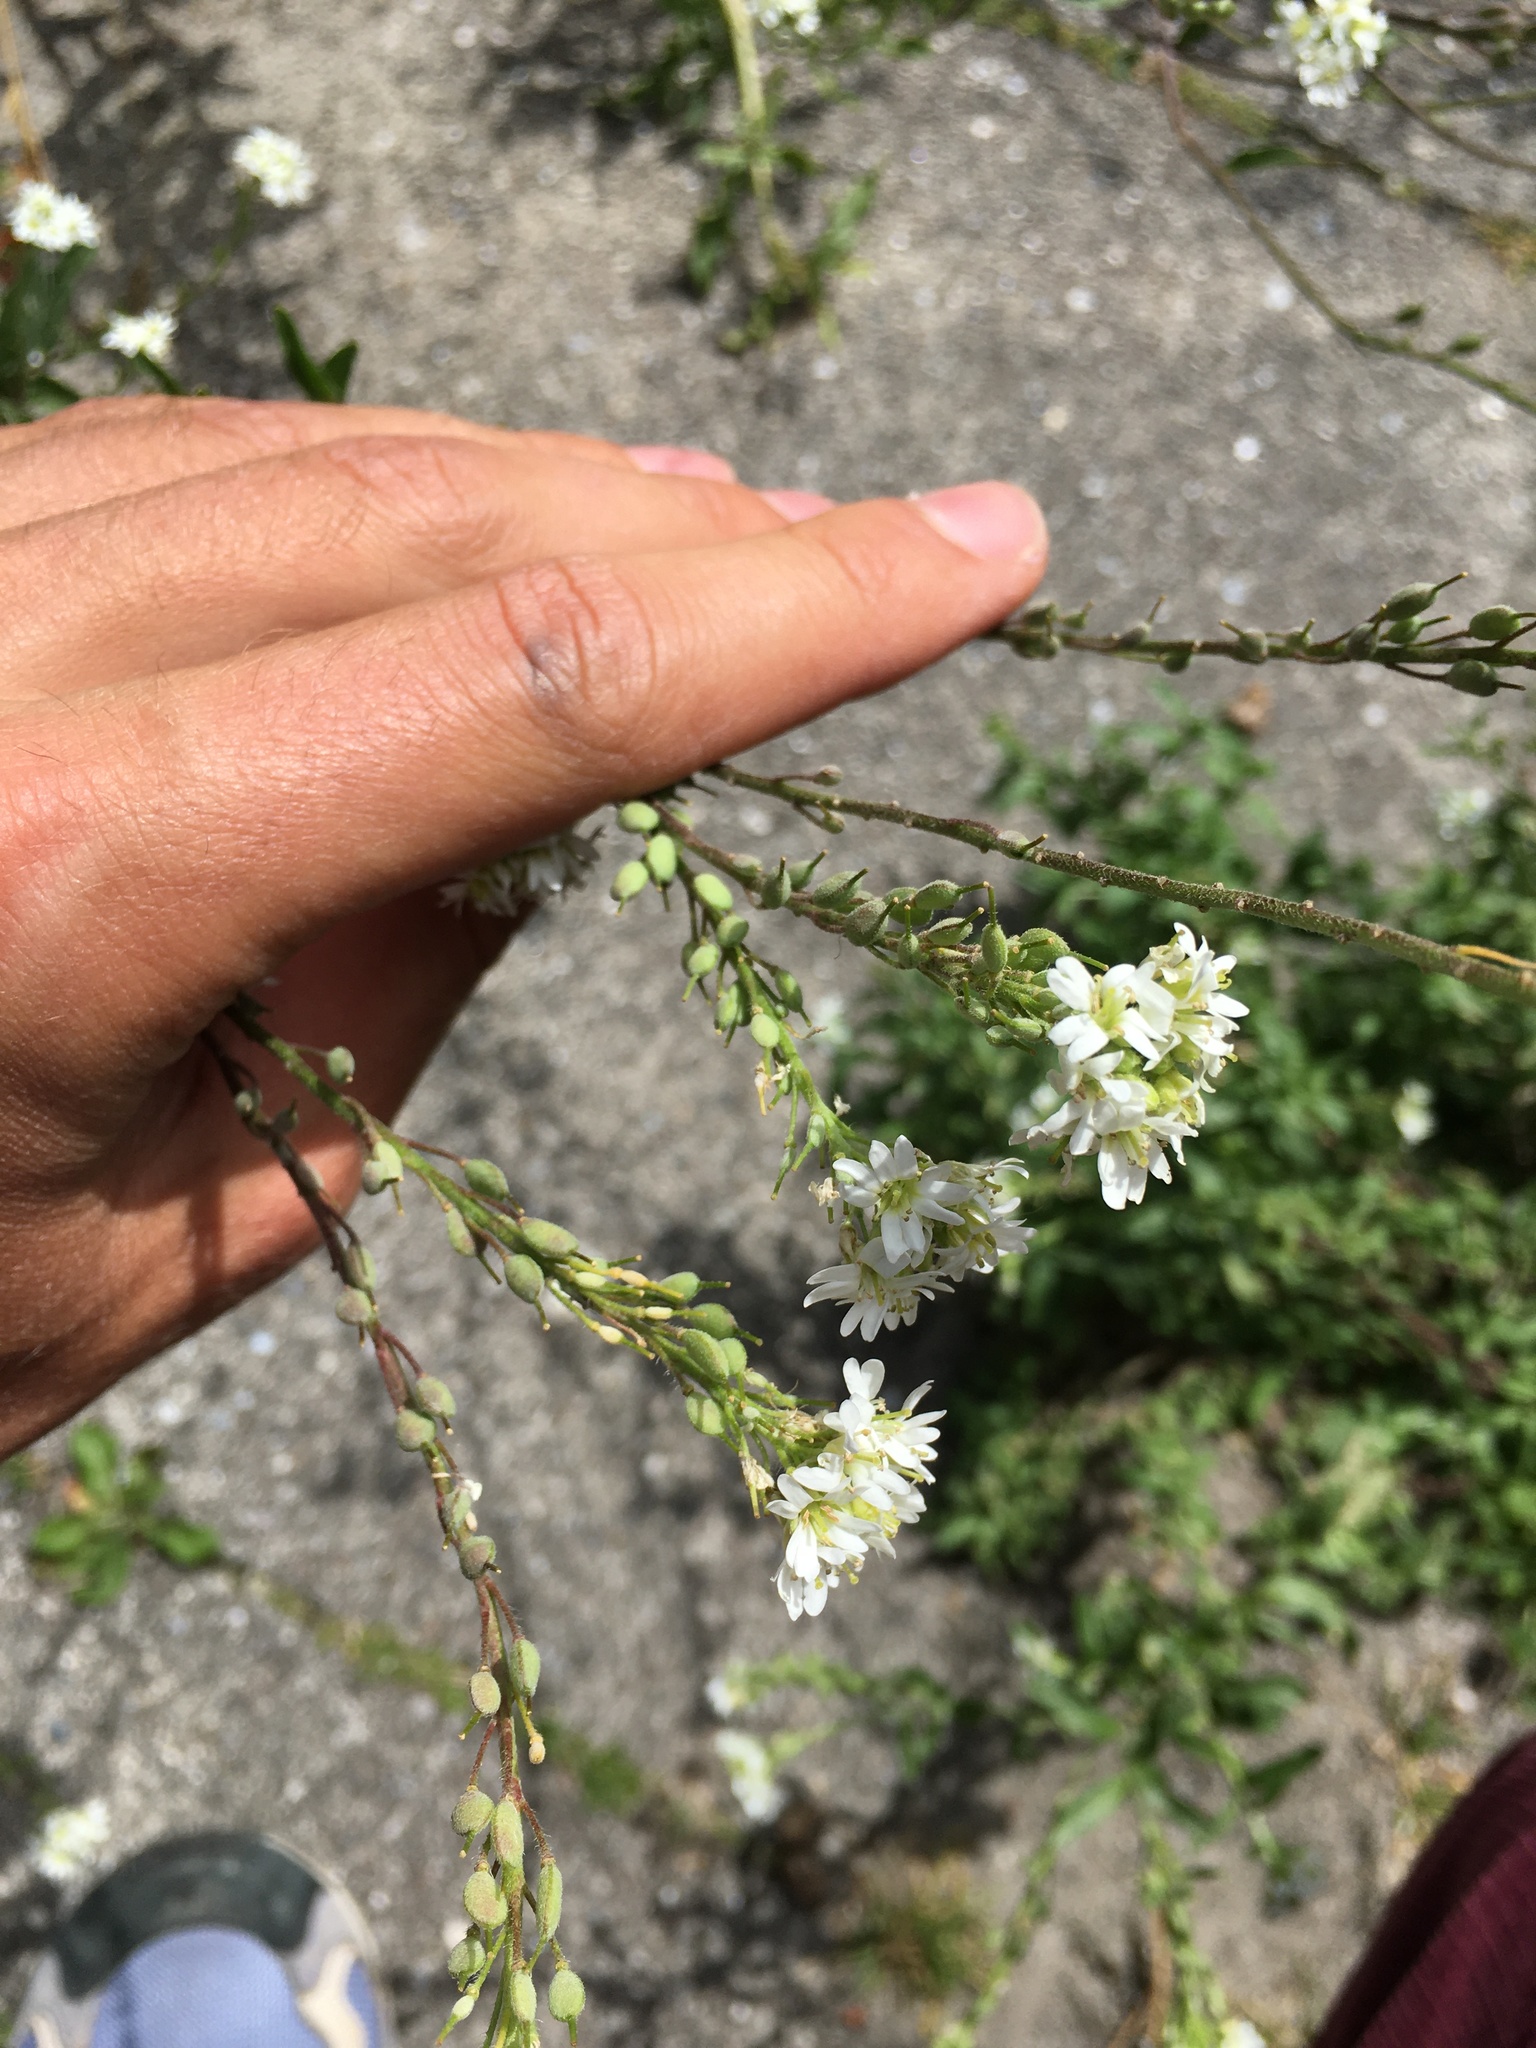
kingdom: Plantae
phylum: Tracheophyta
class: Magnoliopsida
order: Brassicales
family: Brassicaceae
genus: Berteroa
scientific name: Berteroa incana
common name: Hoary alison
